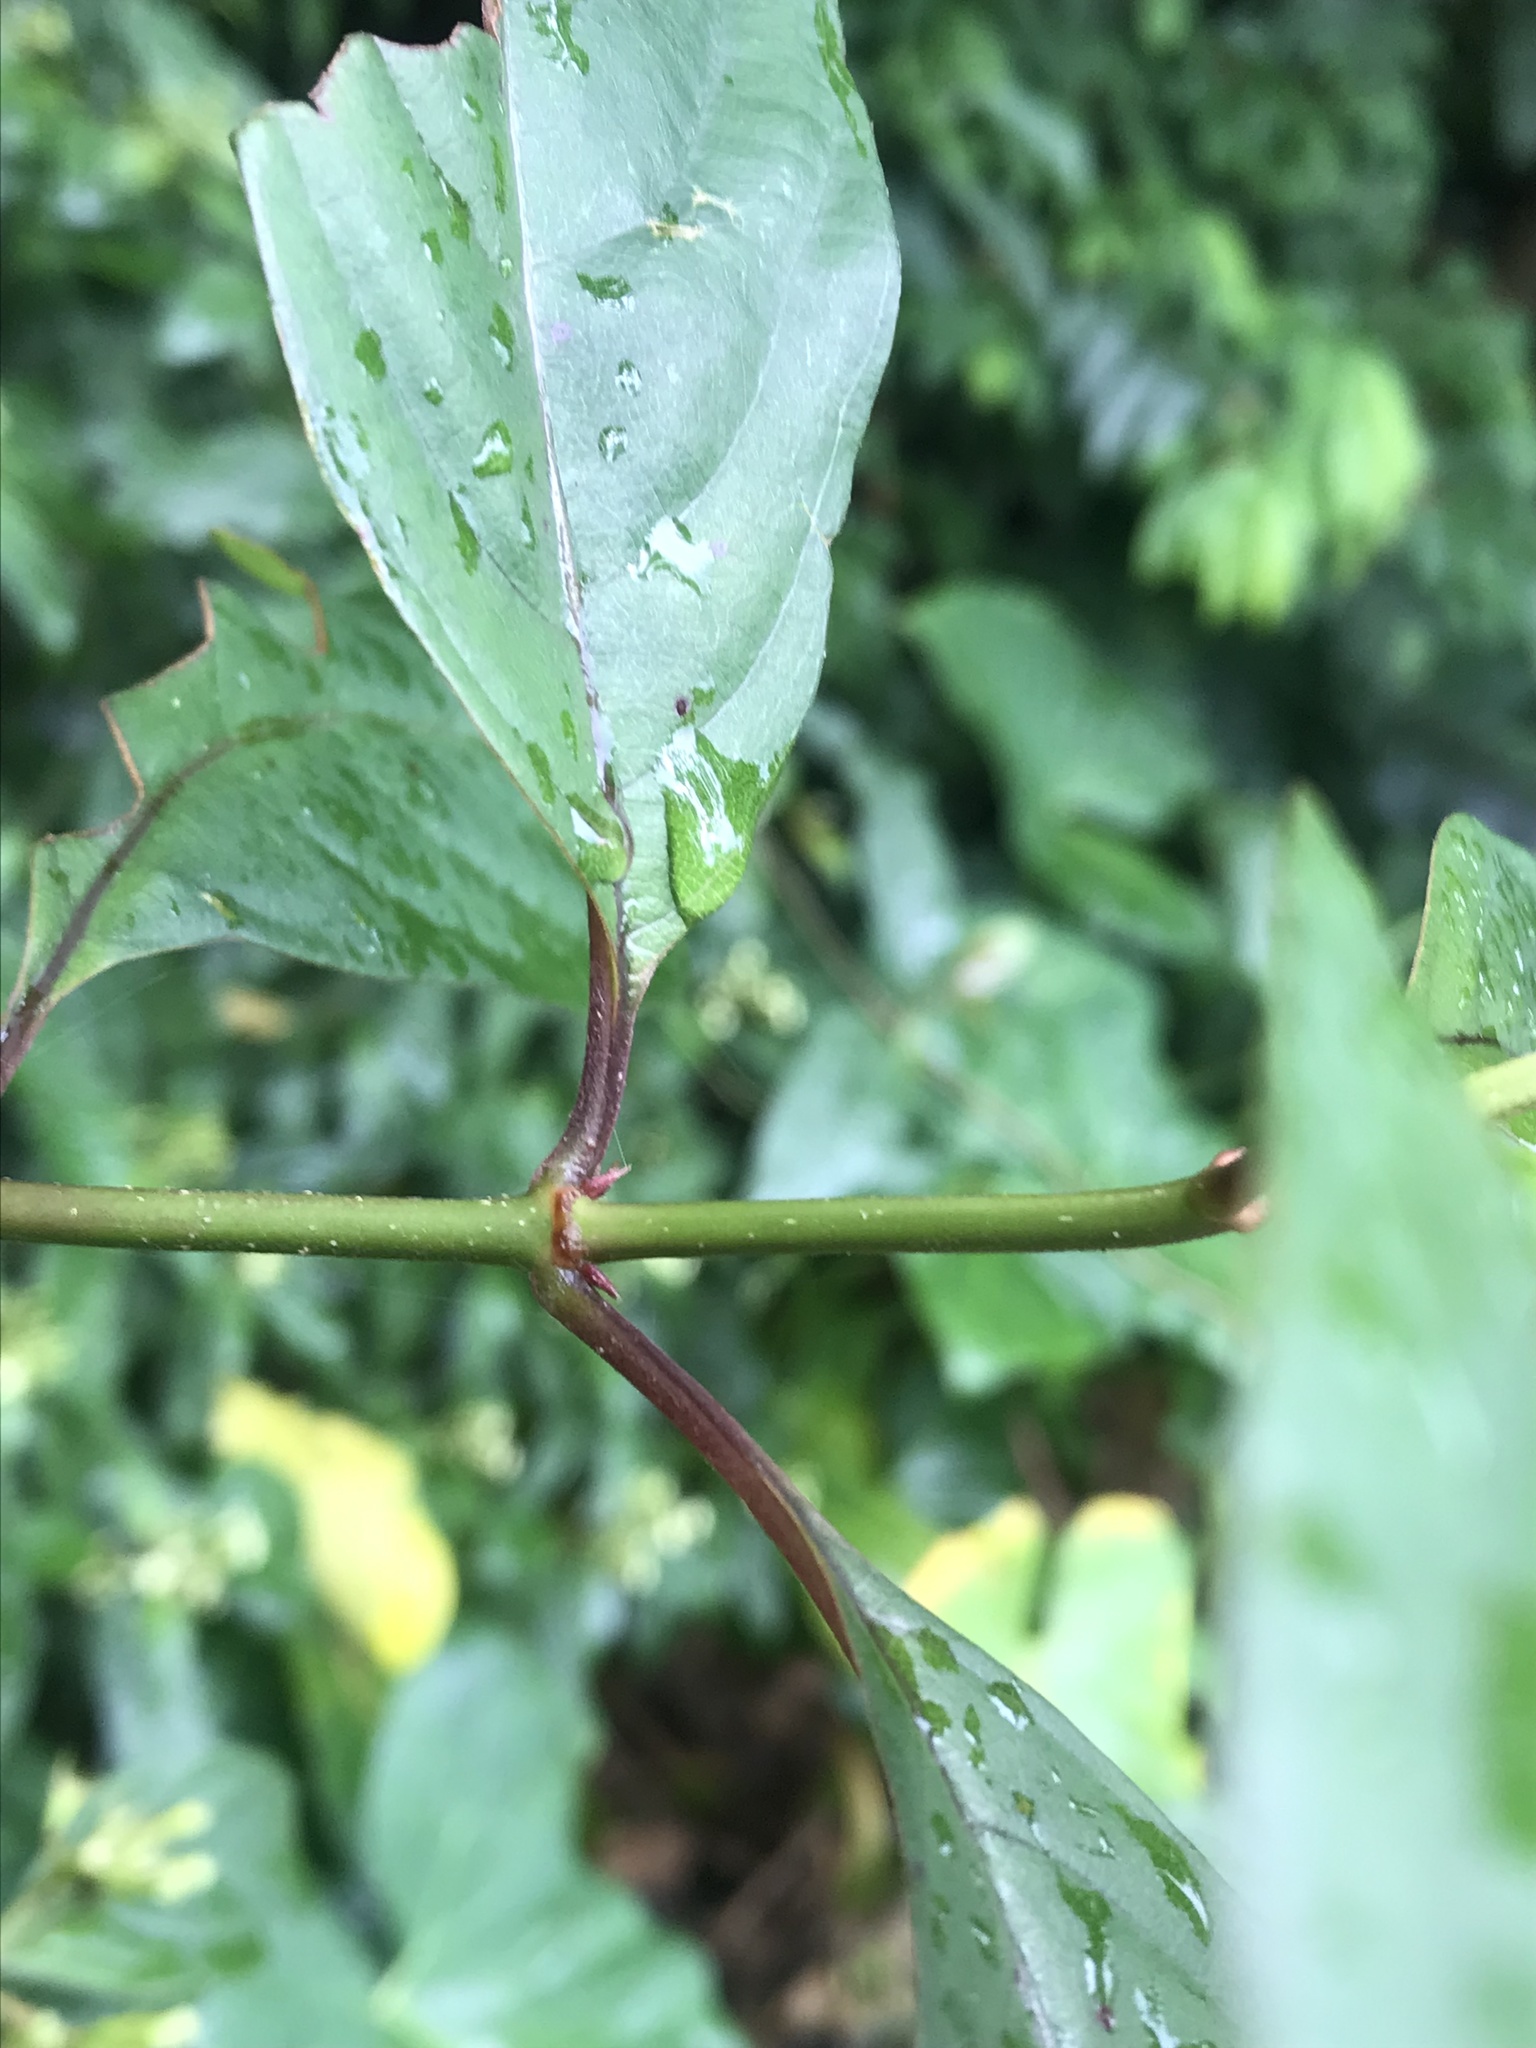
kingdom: Plantae
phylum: Tracheophyta
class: Magnoliopsida
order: Gentianales
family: Rubiaceae
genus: Mussaenda
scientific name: Mussaenda parviflora
